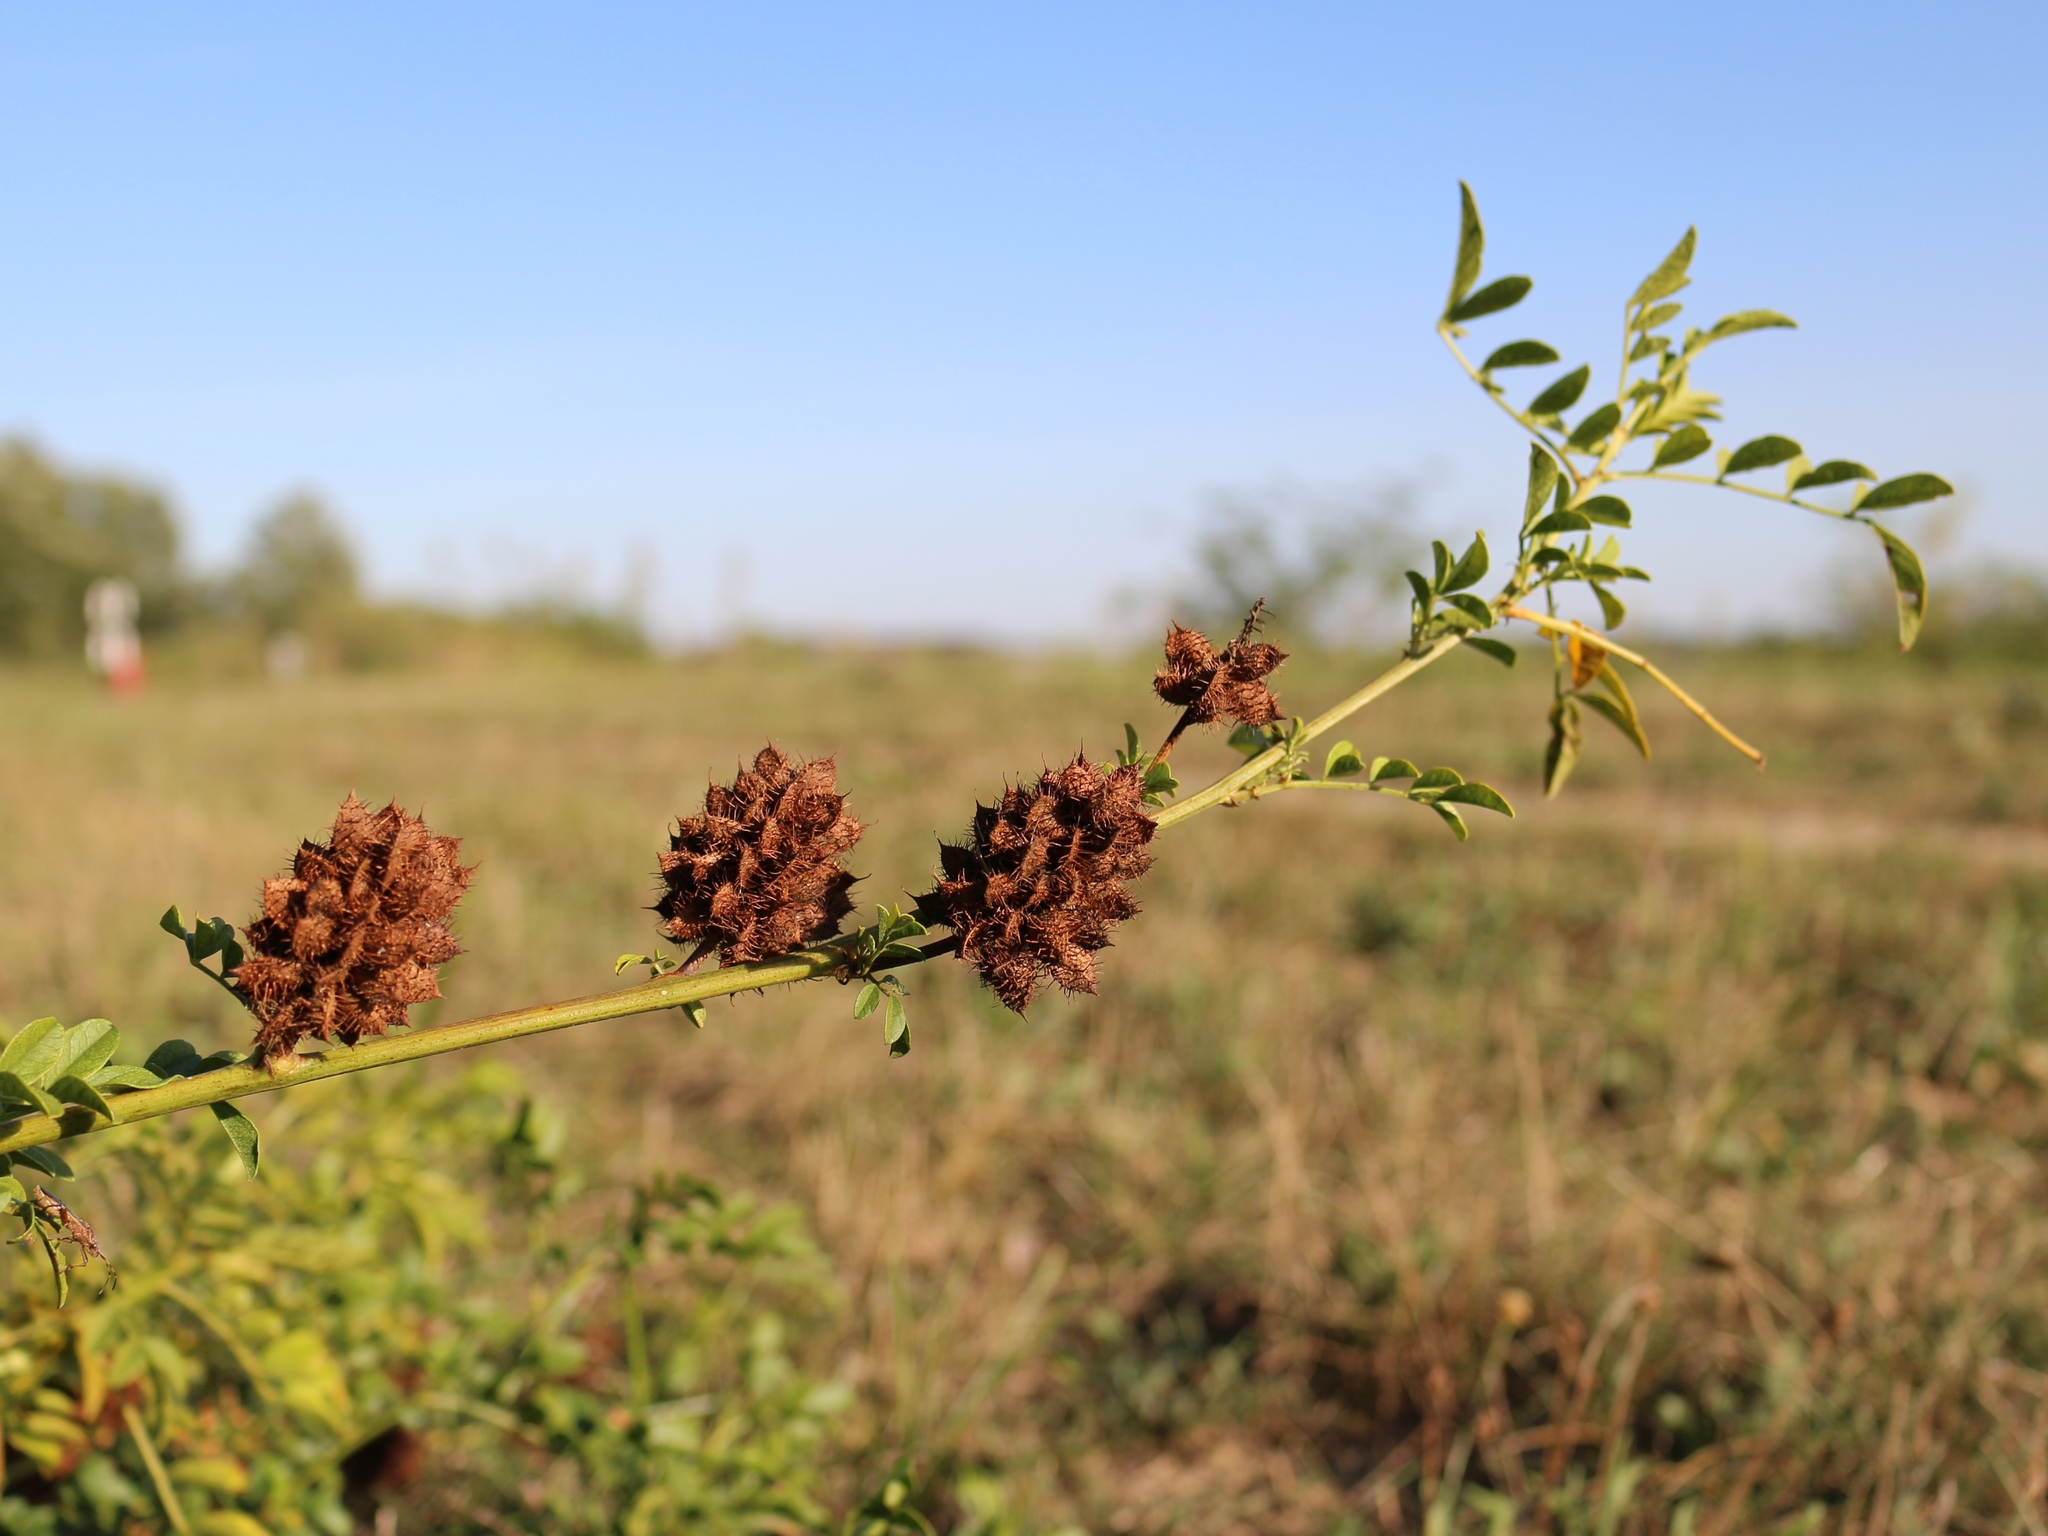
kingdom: Plantae
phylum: Tracheophyta
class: Magnoliopsida
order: Fabales
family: Fabaceae
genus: Glycyrrhiza
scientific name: Glycyrrhiza echinata
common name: German liquorice
